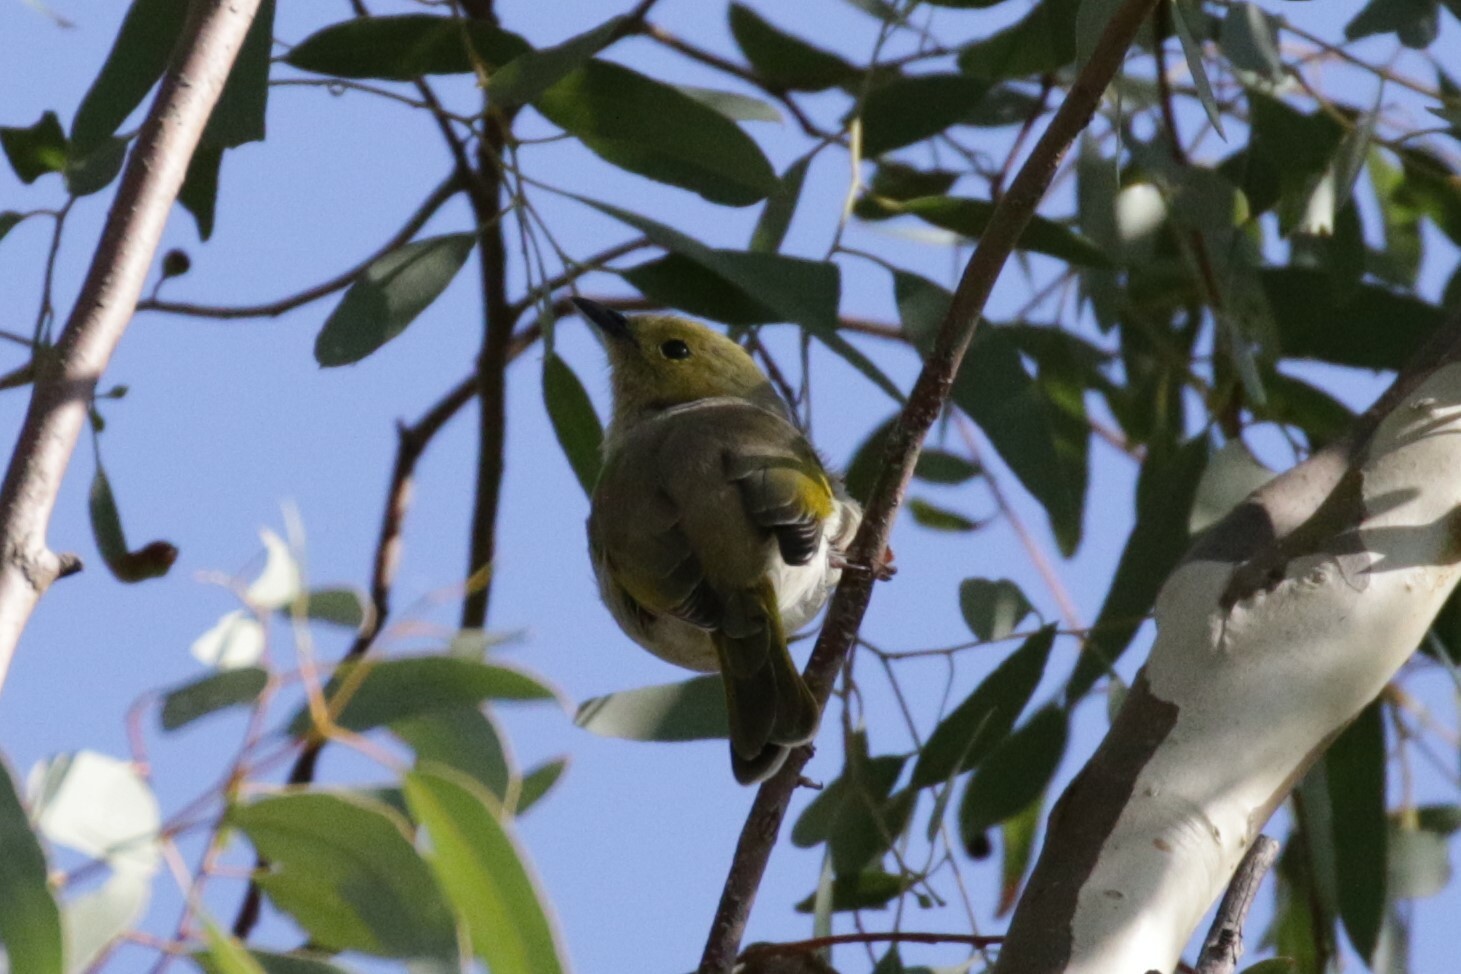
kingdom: Animalia
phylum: Chordata
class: Aves
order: Passeriformes
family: Meliphagidae
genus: Ptilotula
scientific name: Ptilotula penicillata
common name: White-plumed honeyeater
